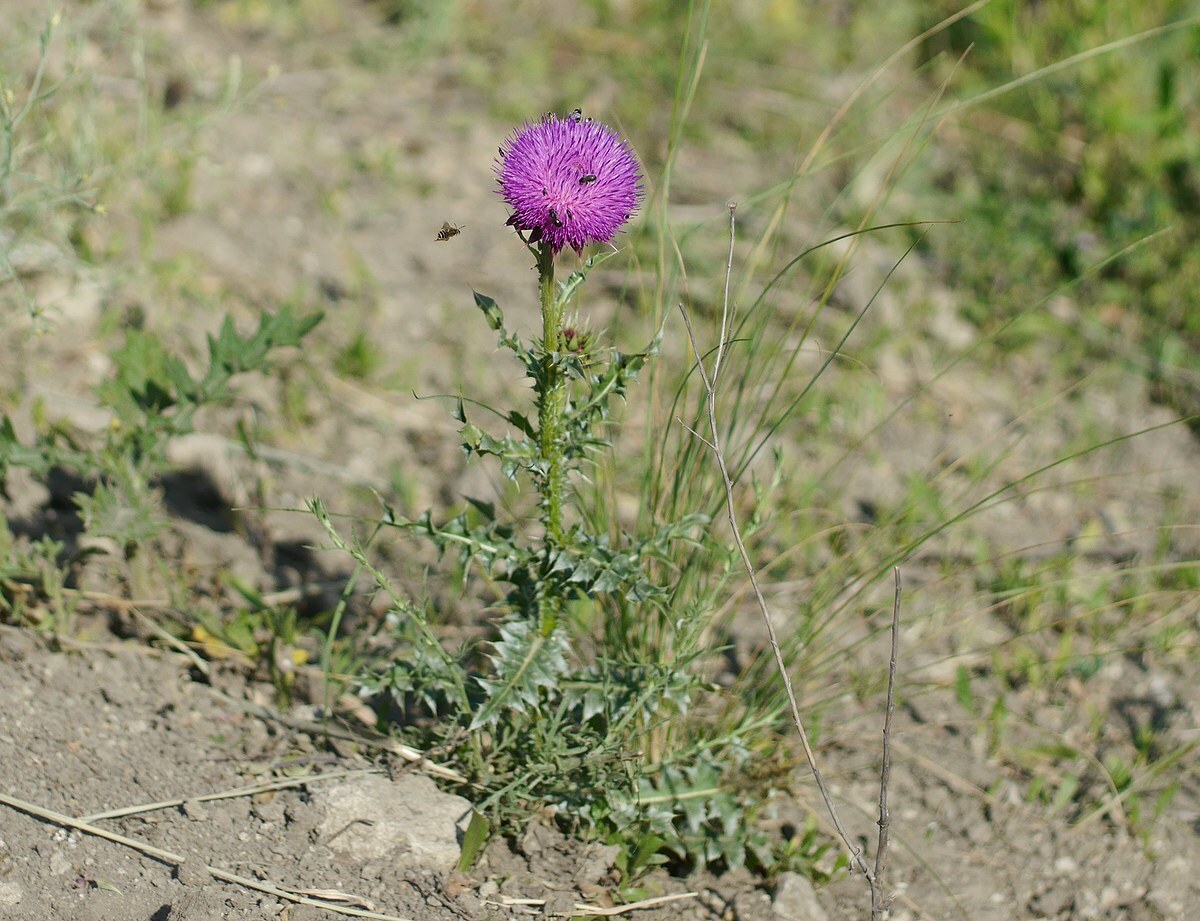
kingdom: Plantae
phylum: Tracheophyta
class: Magnoliopsida
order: Asterales
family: Asteraceae
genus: Carduus
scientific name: Carduus nutans
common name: Musk thistle
